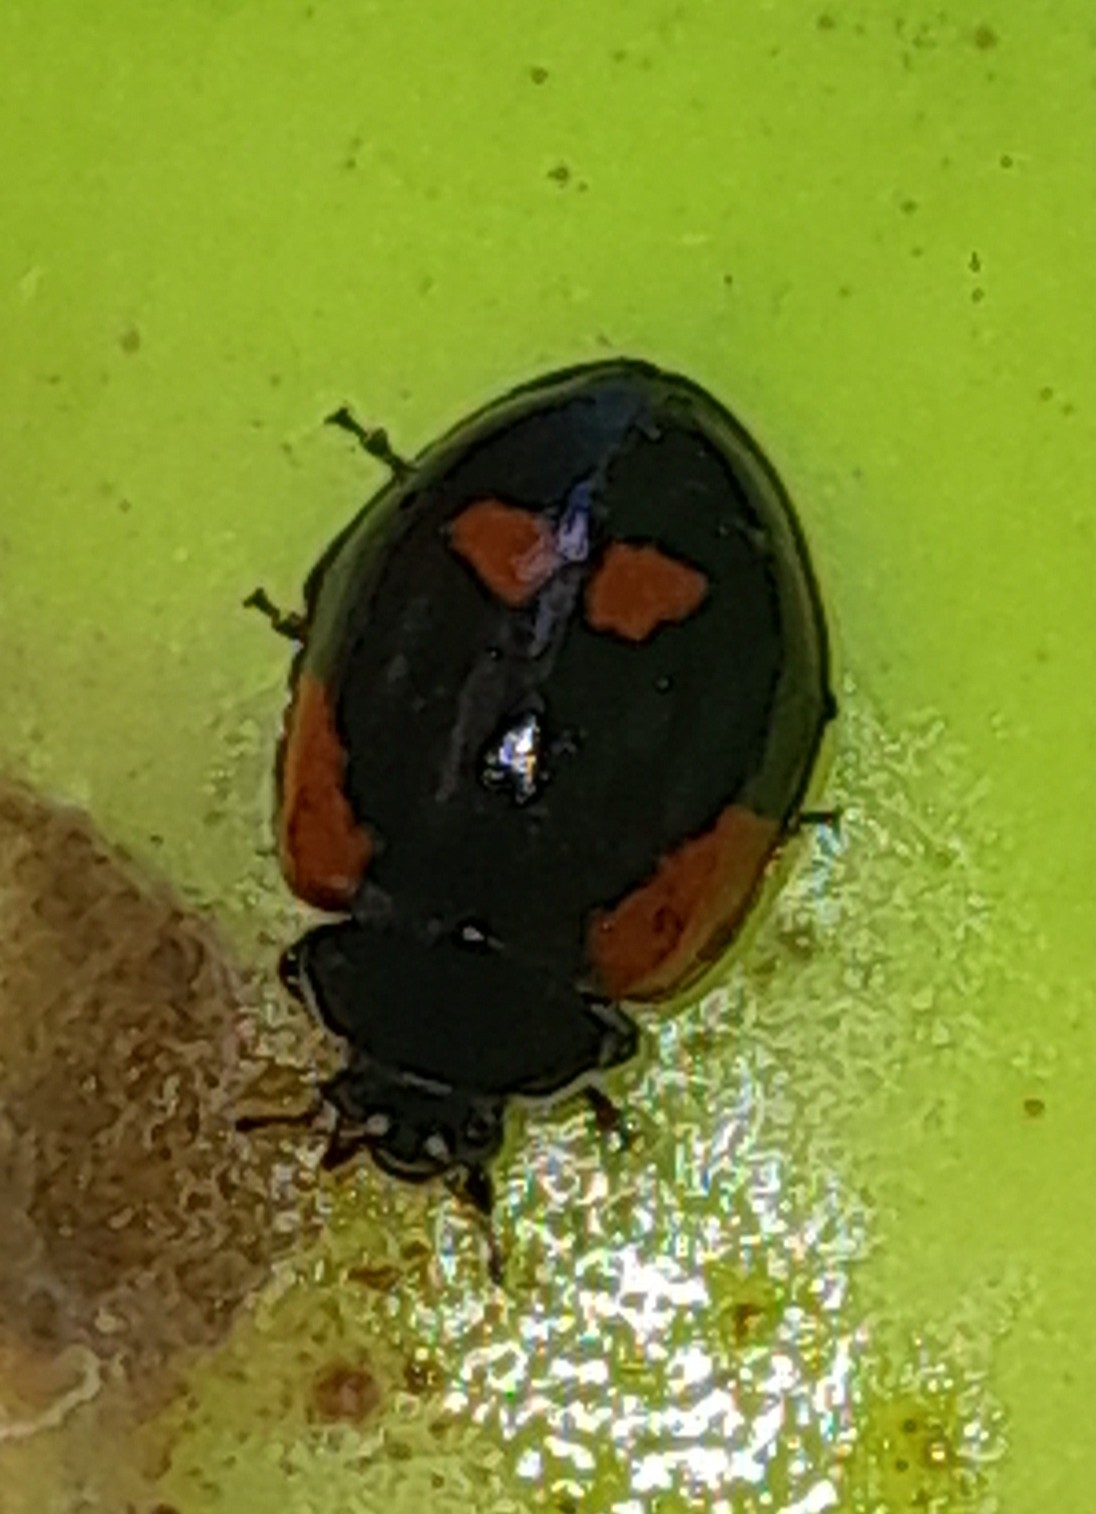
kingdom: Animalia
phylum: Arthropoda
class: Insecta
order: Coleoptera
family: Coccinellidae
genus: Adalia
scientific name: Adalia bipunctata
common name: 2-spot ladybird
